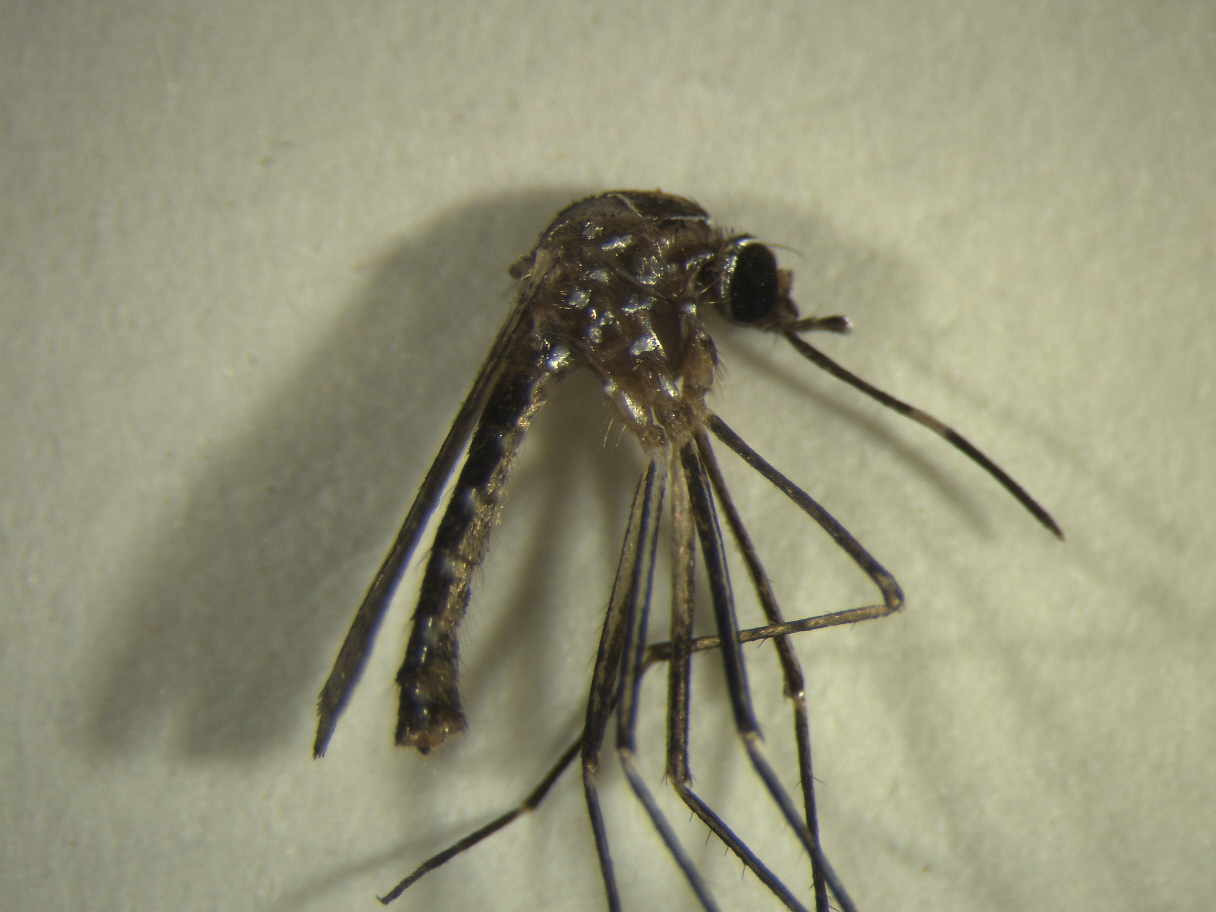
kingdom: Animalia
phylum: Arthropoda
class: Insecta
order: Diptera
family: Culicidae
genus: Aedes
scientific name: Aedes notoscriptus
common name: Australian backyard mosquito
